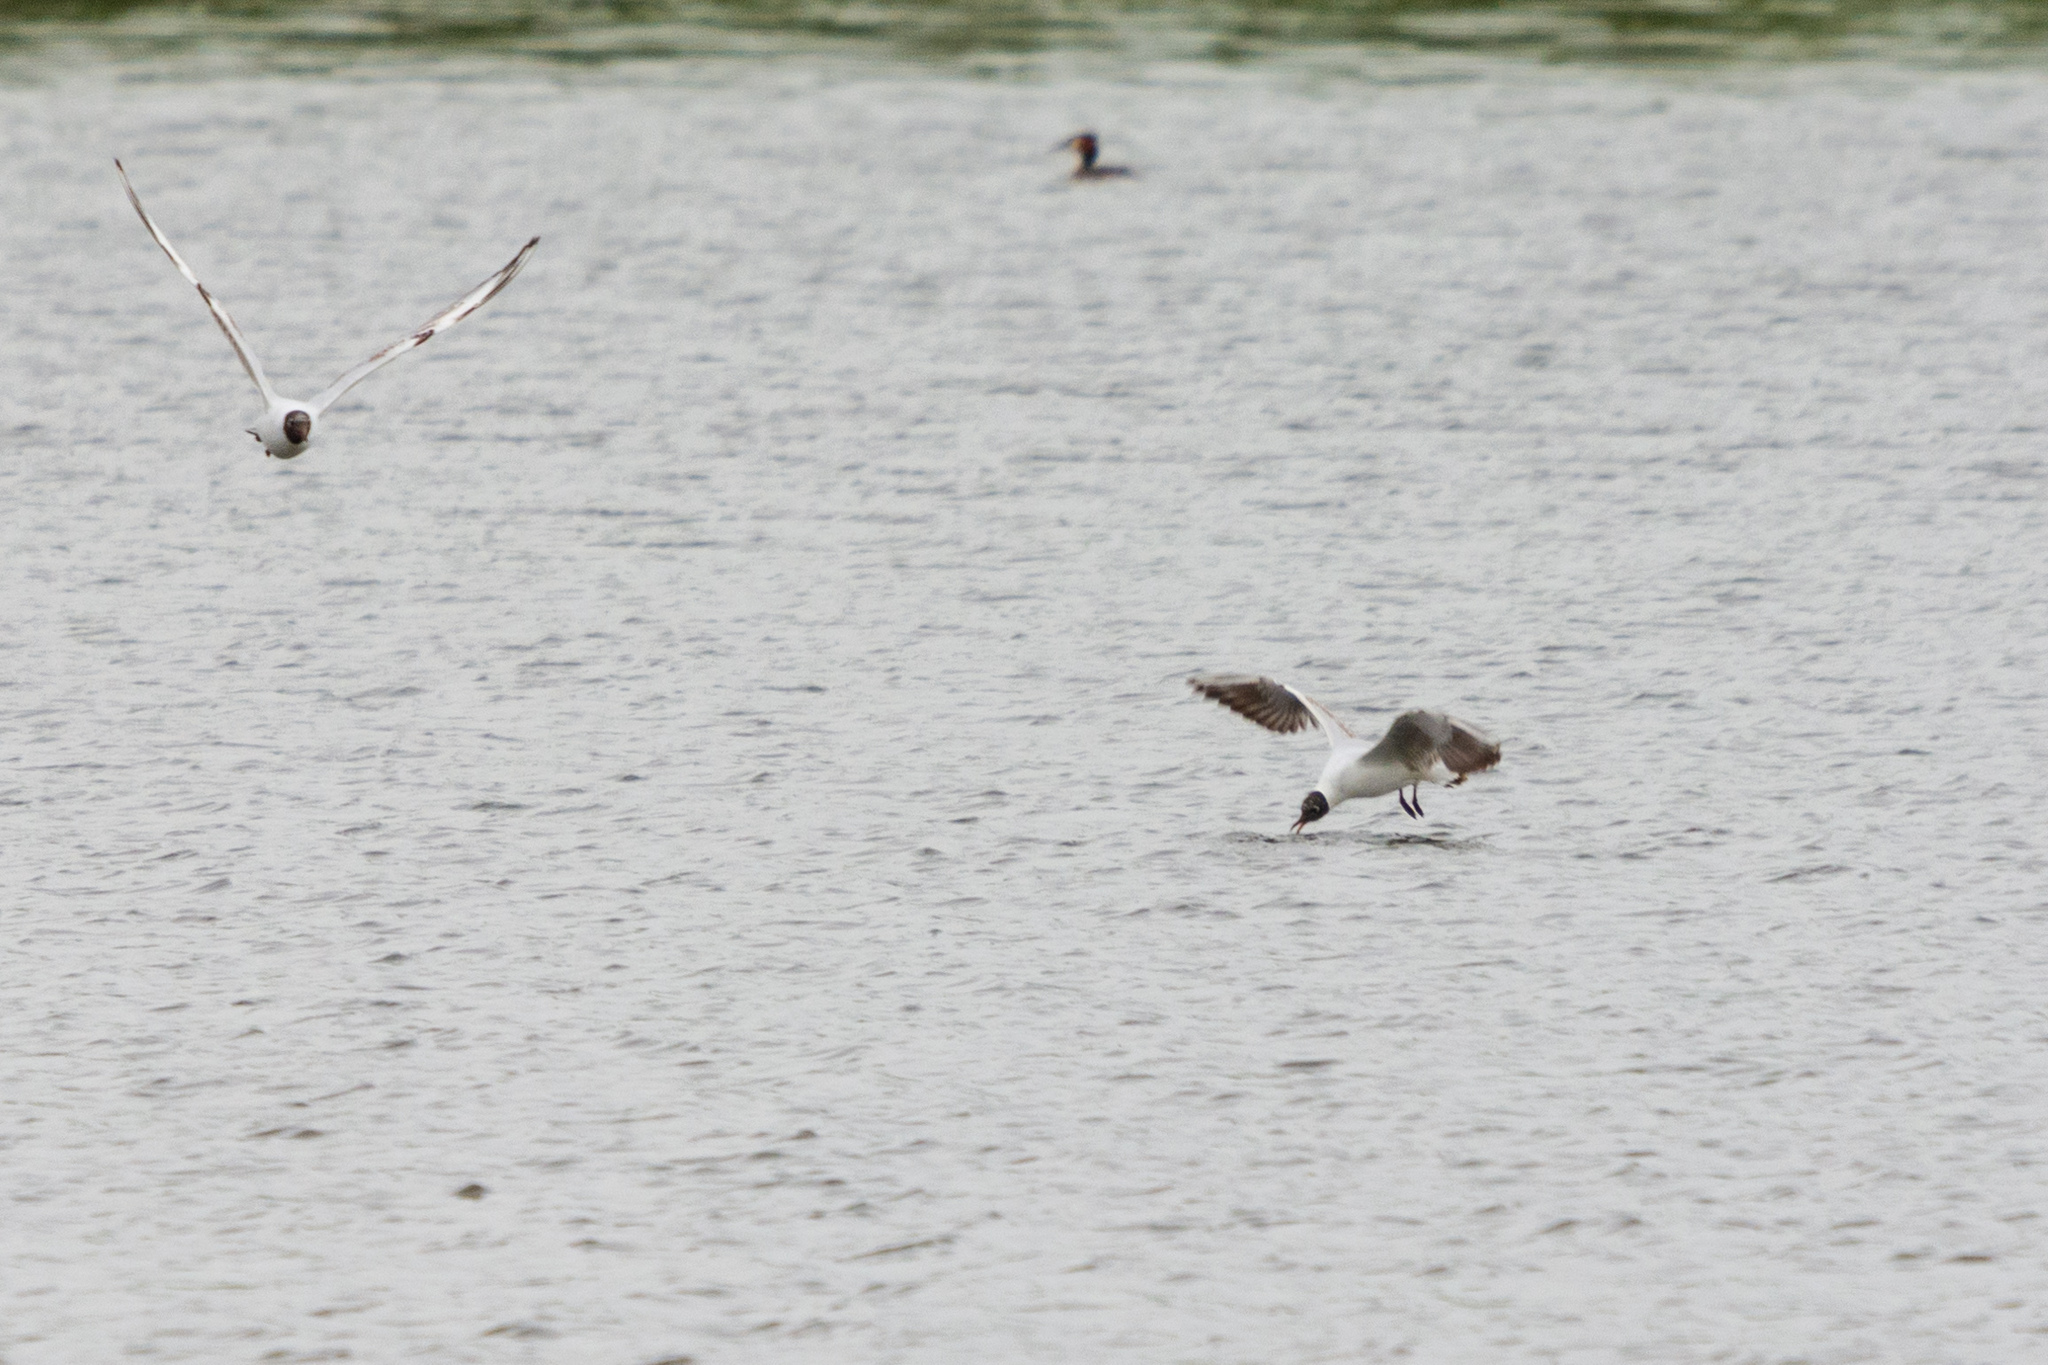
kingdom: Animalia
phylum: Chordata
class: Aves
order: Charadriiformes
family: Laridae
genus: Chroicocephalus
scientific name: Chroicocephalus ridibundus
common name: Black-headed gull
